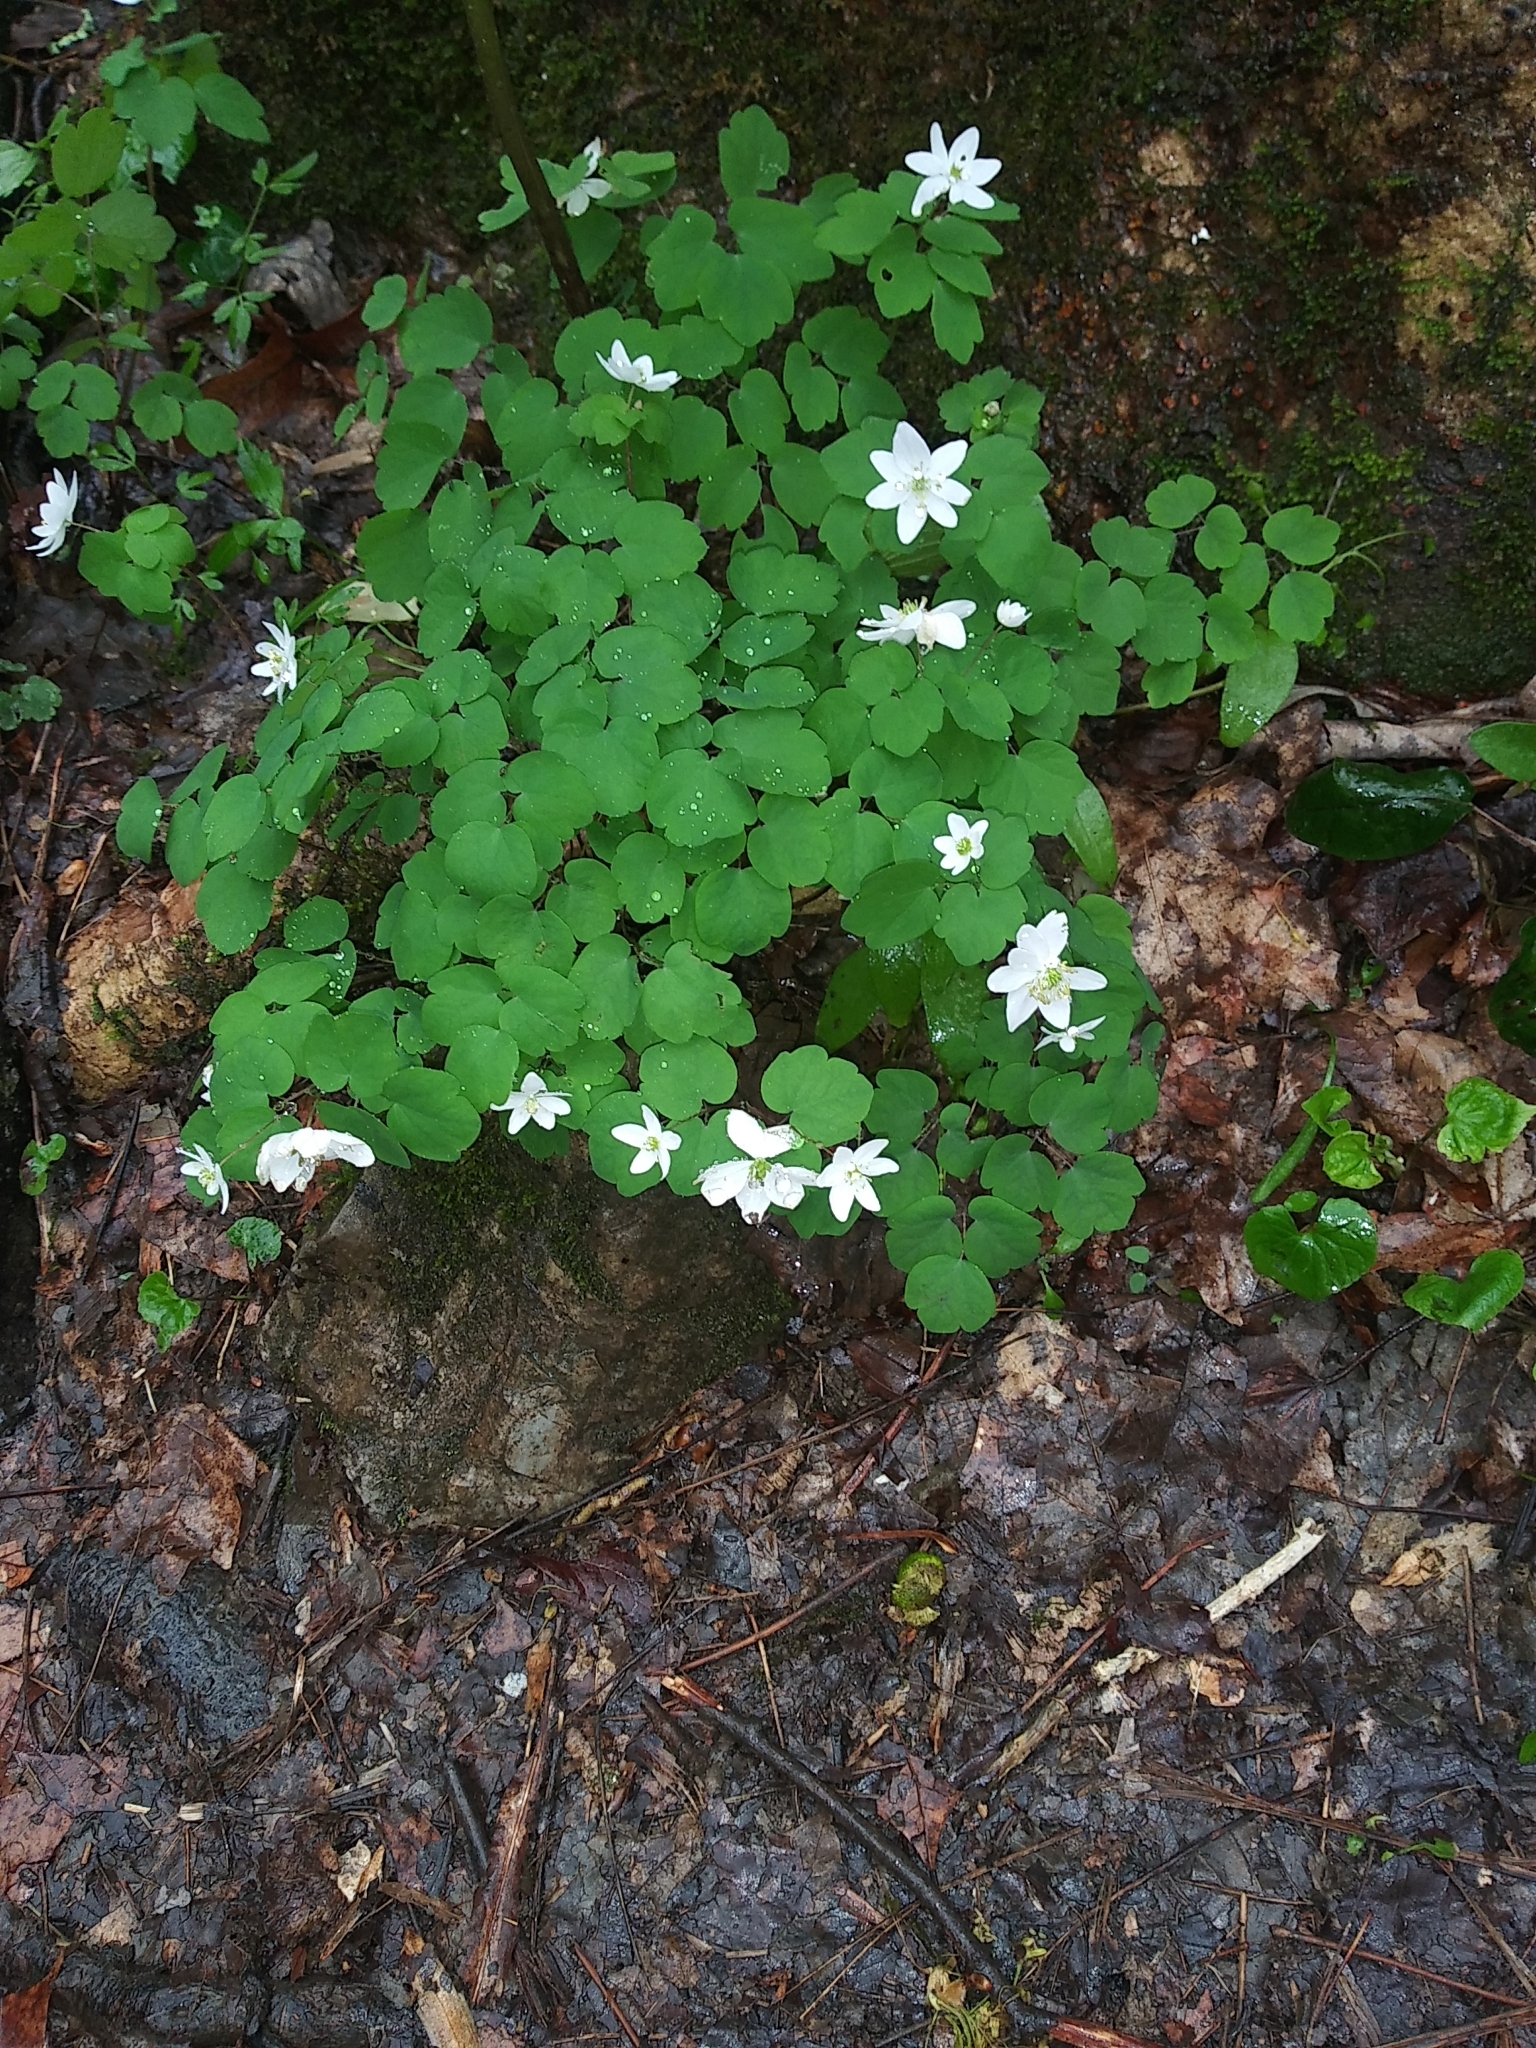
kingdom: Plantae
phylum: Tracheophyta
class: Magnoliopsida
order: Ranunculales
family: Ranunculaceae
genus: Thalictrum
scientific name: Thalictrum thalictroides
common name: Rue-anemone
